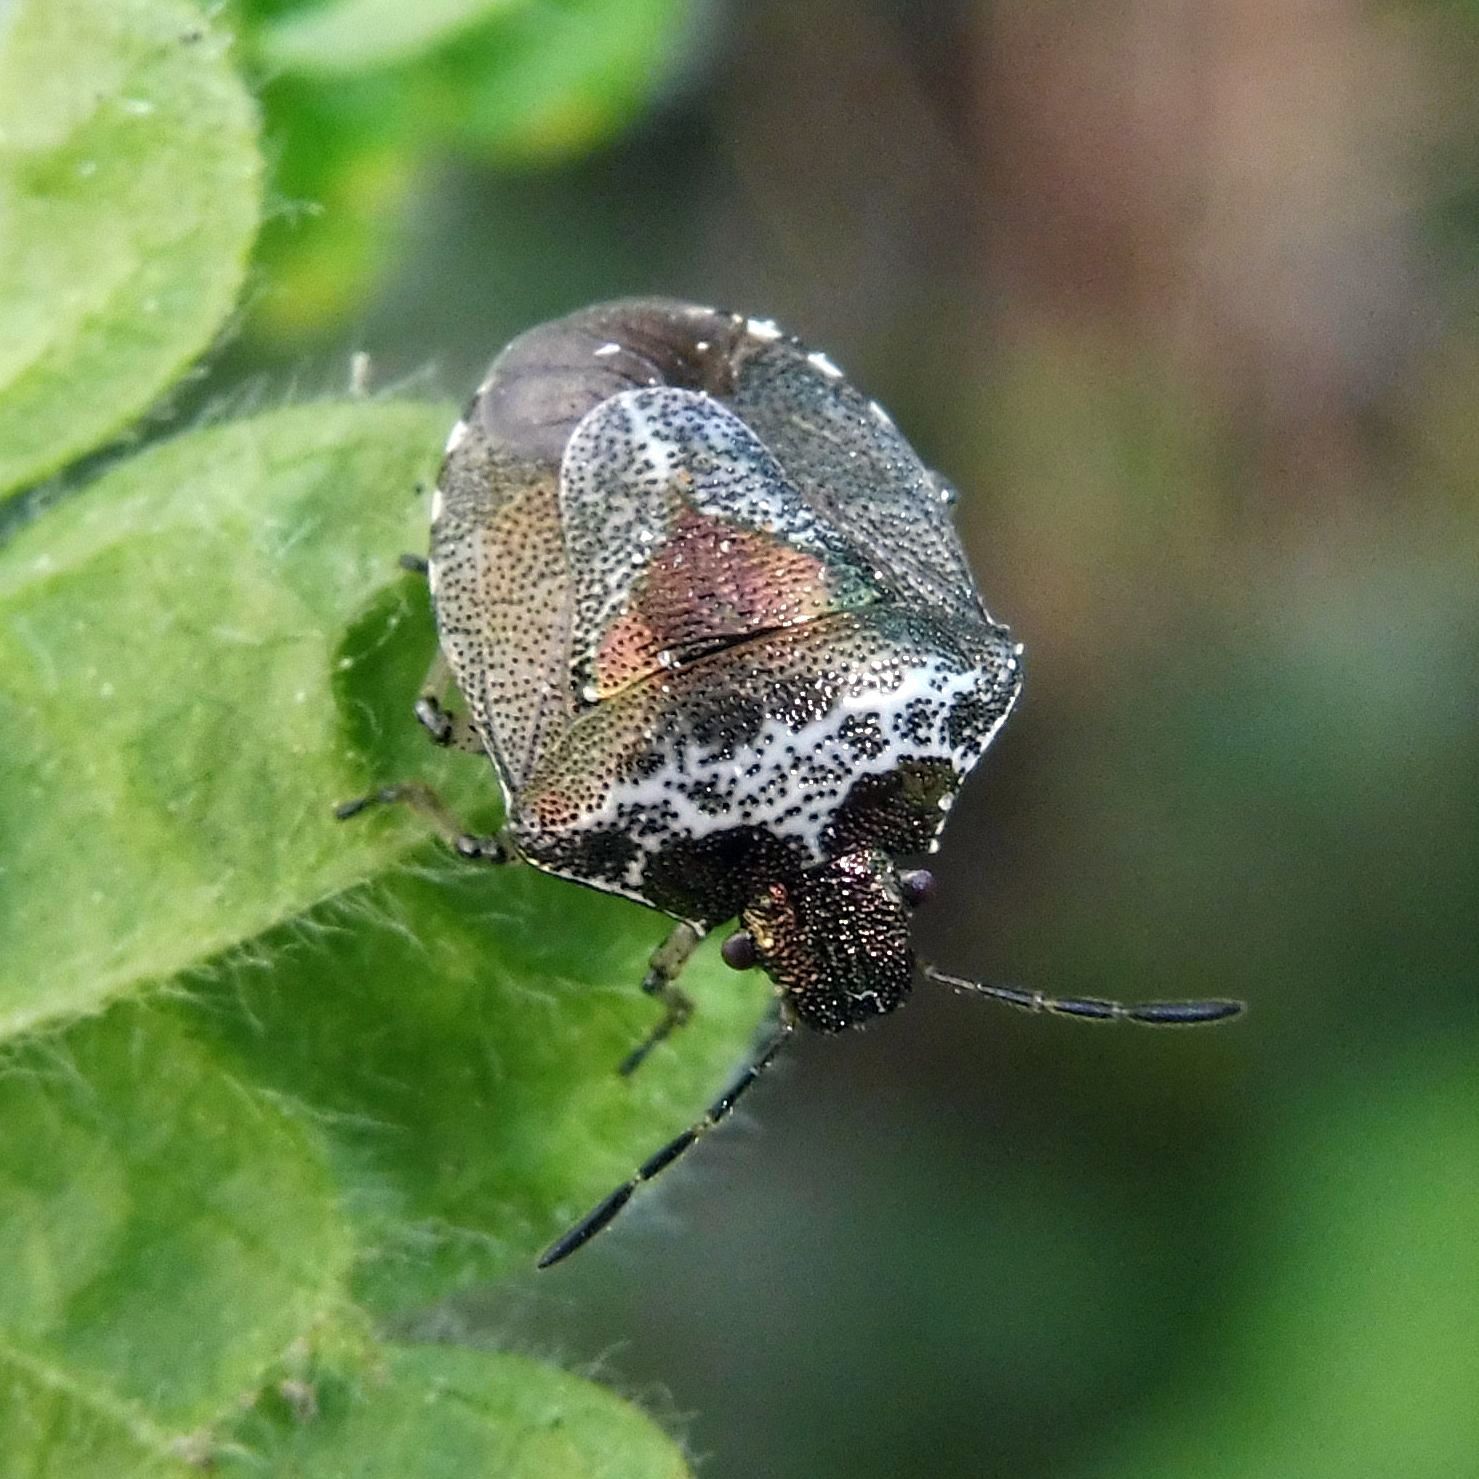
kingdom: Animalia
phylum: Arthropoda
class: Insecta
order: Hemiptera
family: Pentatomidae
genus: Eysarcoris
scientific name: Eysarcoris venustissimus
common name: Woundwort shieldbug
